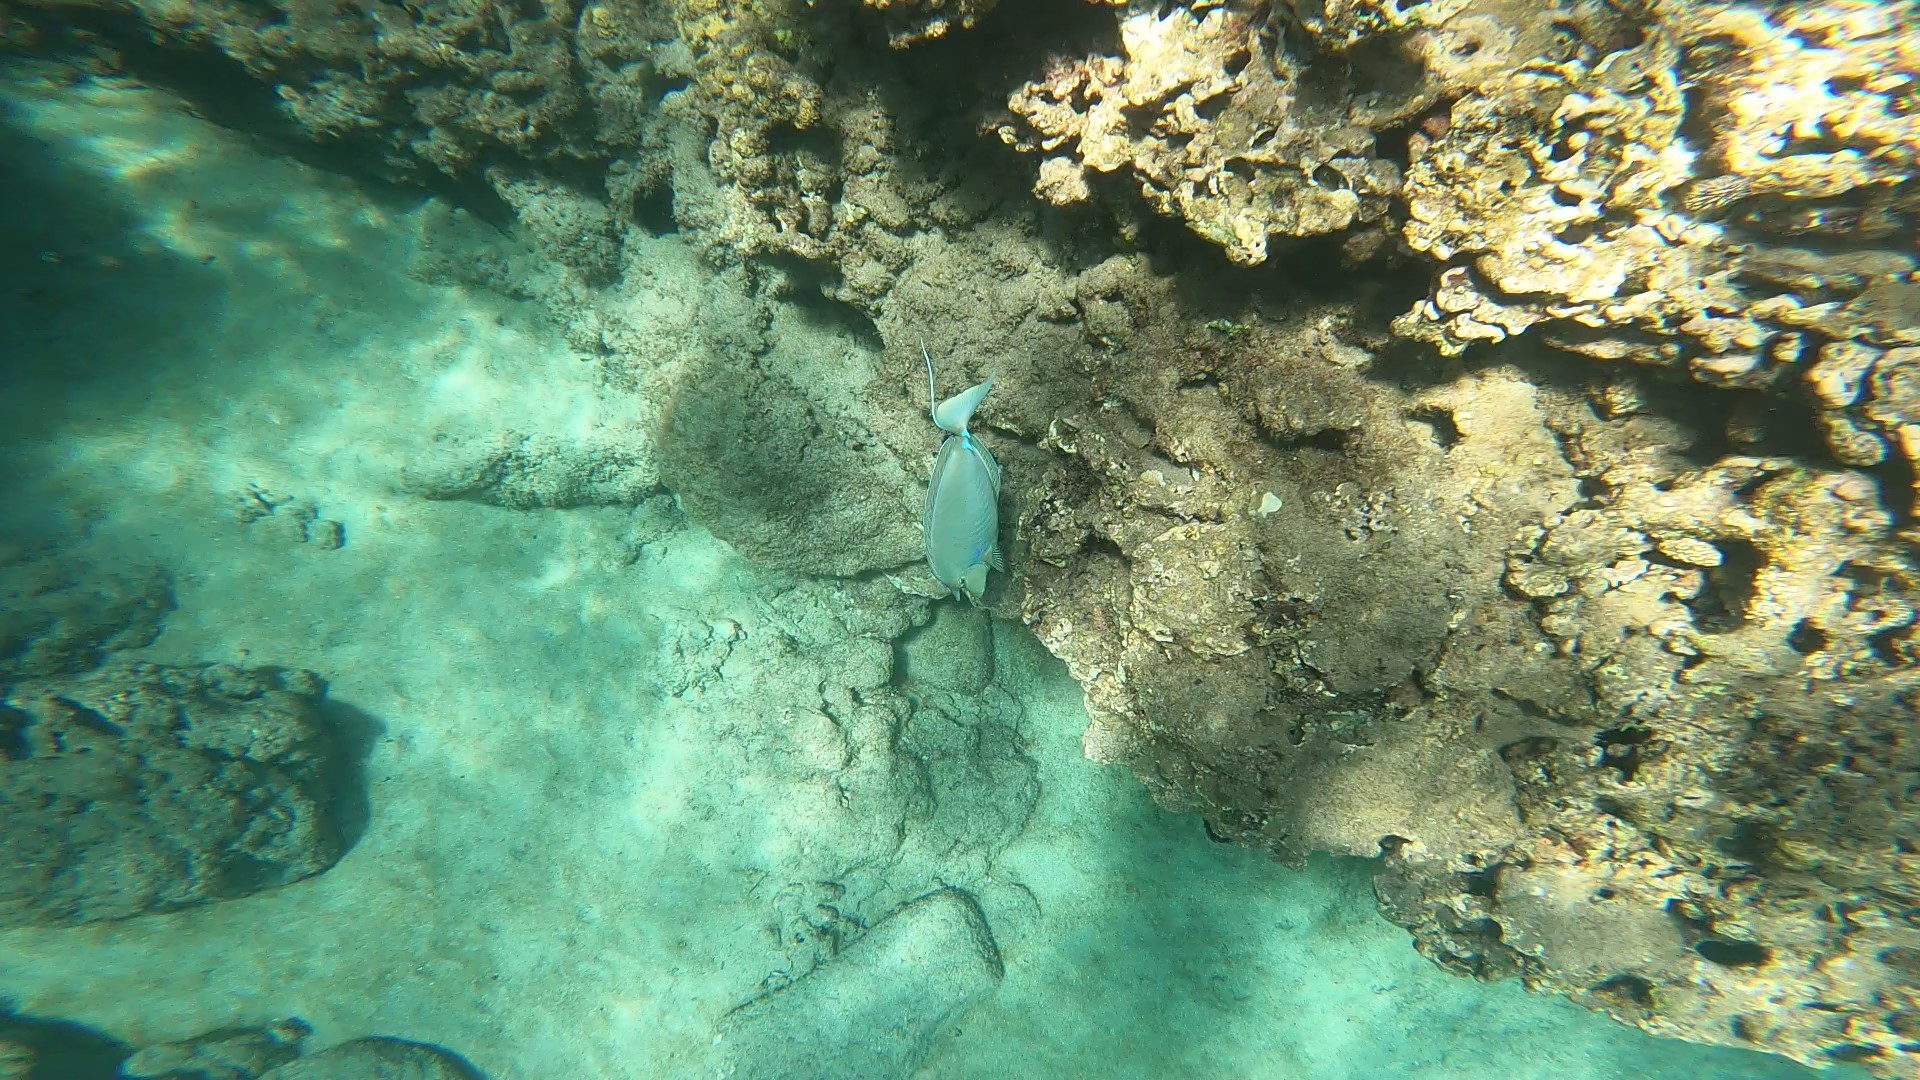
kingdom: Animalia
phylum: Chordata
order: Perciformes
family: Acanthuridae
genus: Naso
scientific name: Naso unicornis
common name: Bluespine unicornfish
